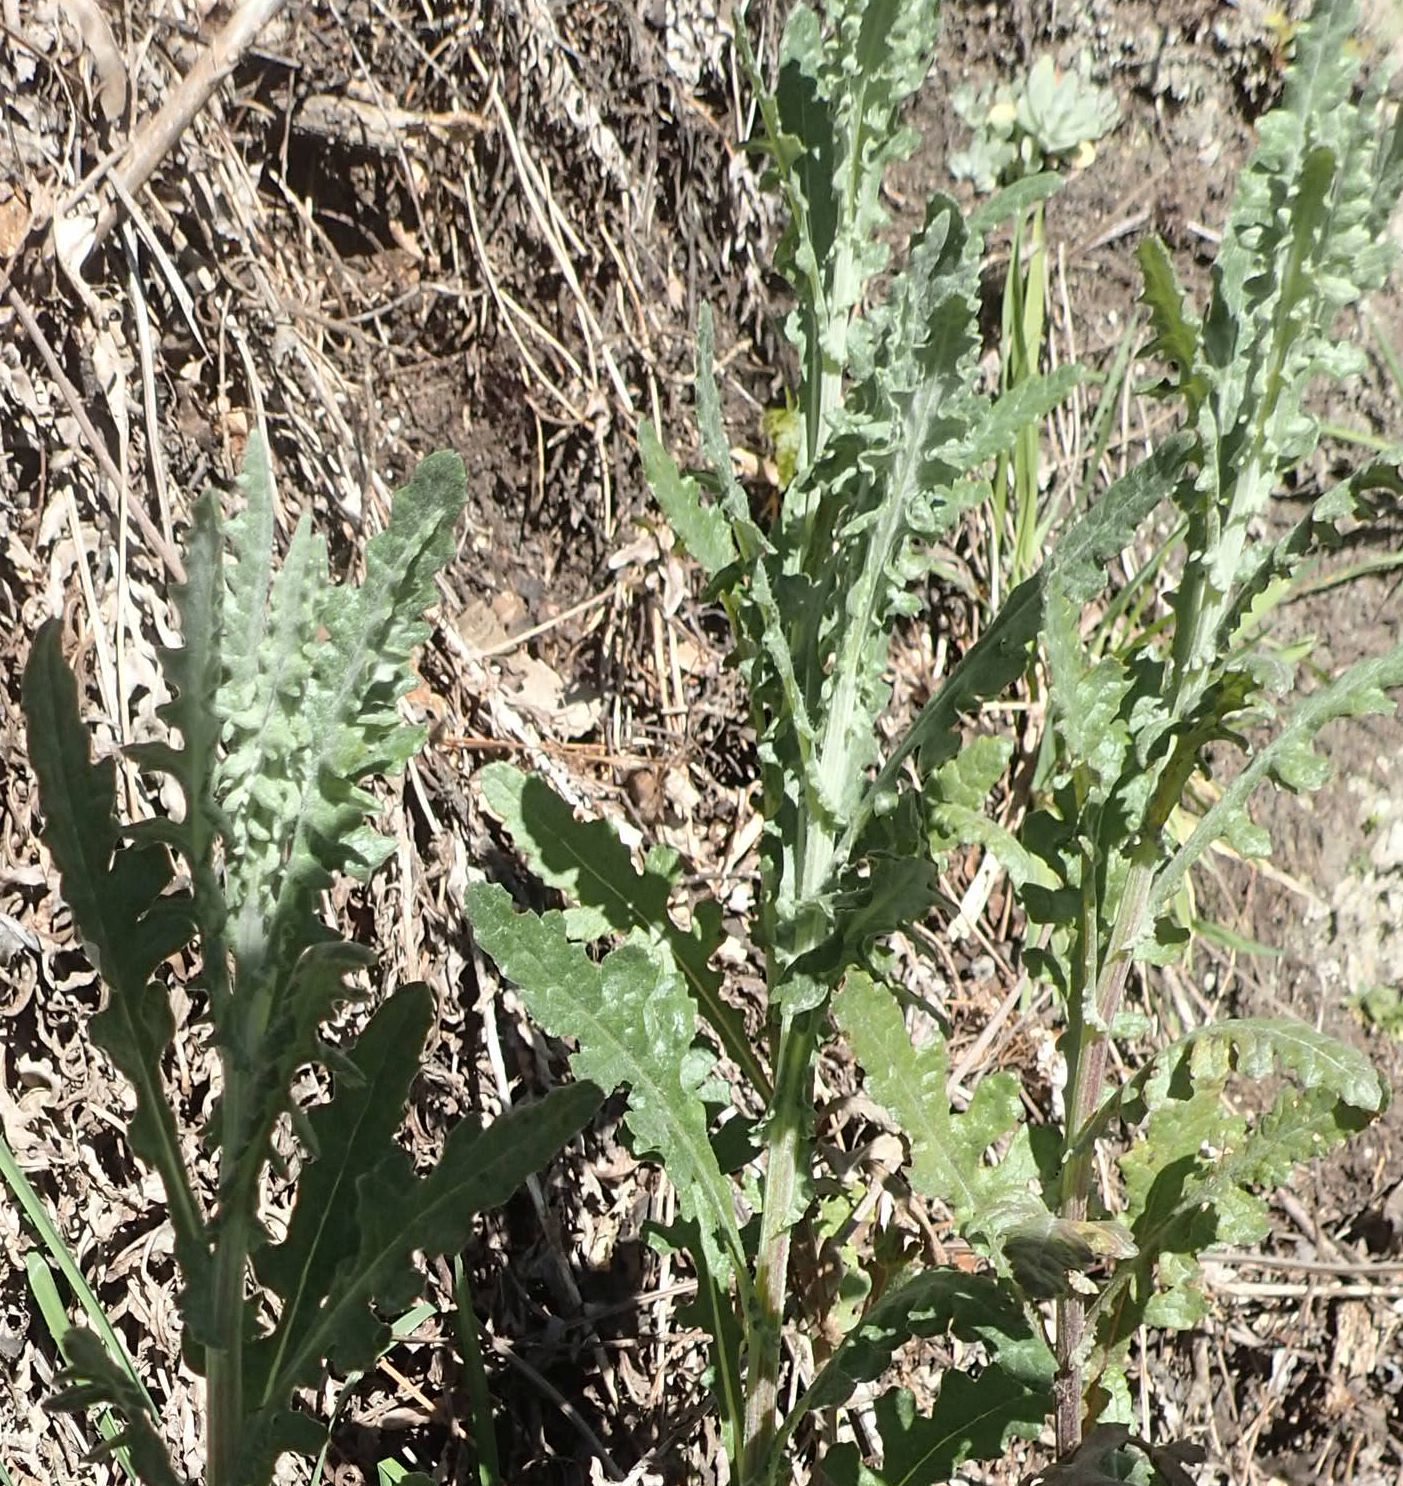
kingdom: Plantae
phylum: Tracheophyta
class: Magnoliopsida
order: Asterales
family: Asteraceae
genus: Senecio
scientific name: Senecio glomeratus
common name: Cutleaf burnweed
